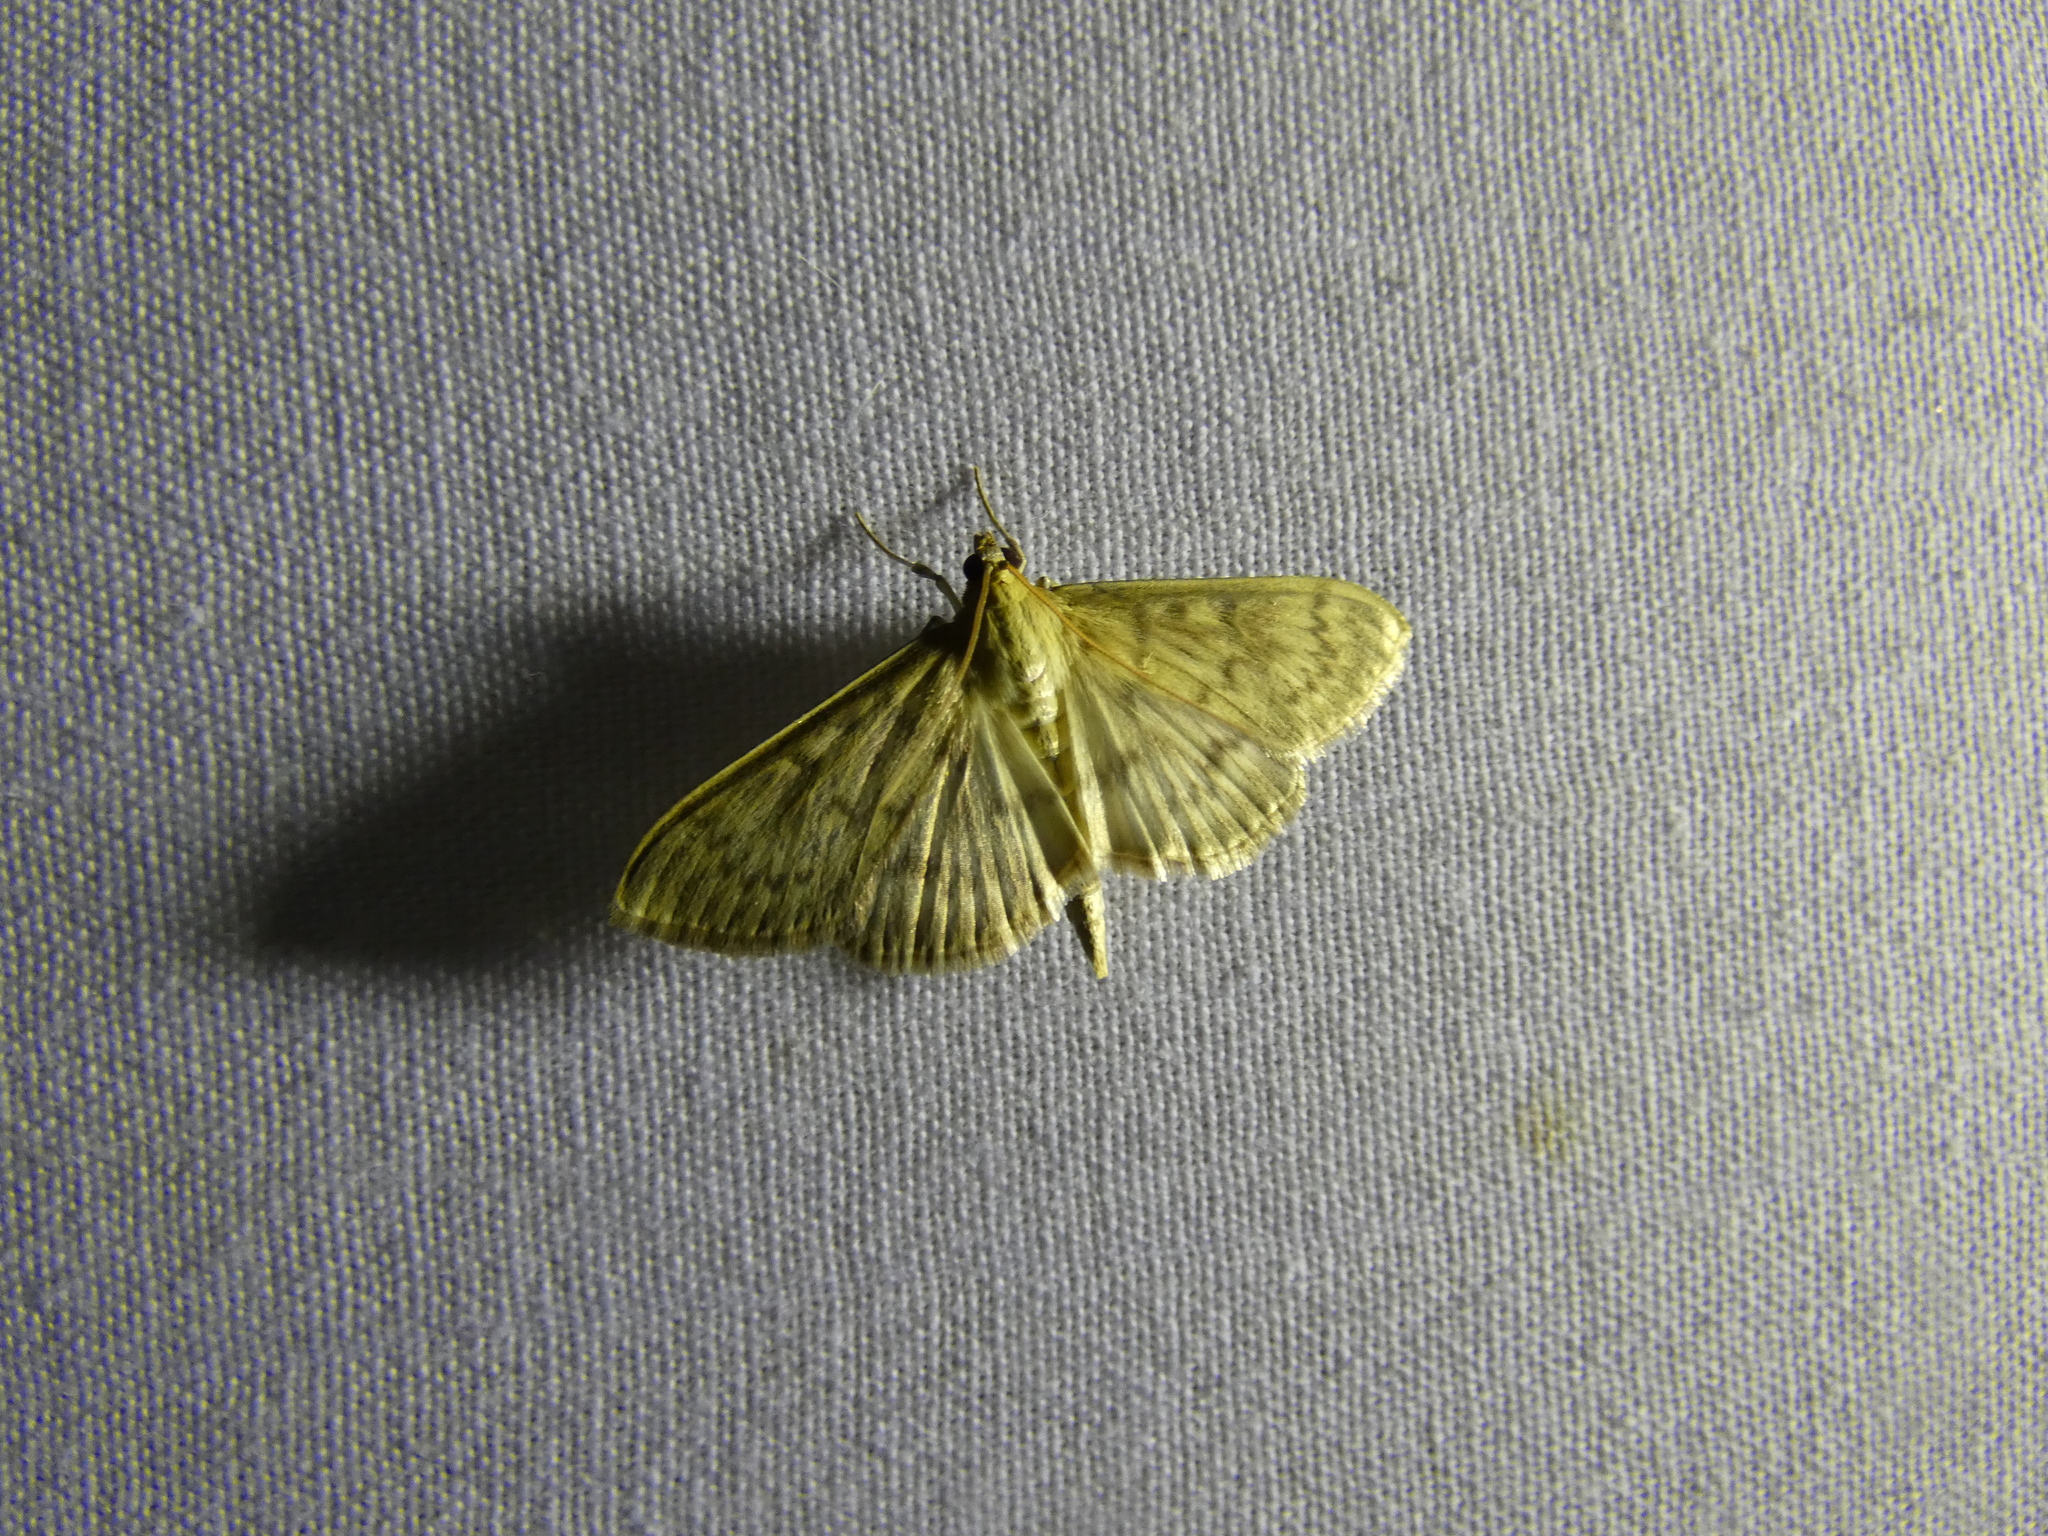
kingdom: Animalia
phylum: Arthropoda
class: Insecta
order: Lepidoptera
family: Crambidae
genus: Patania
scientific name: Patania ruralis
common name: Mother of pearl
